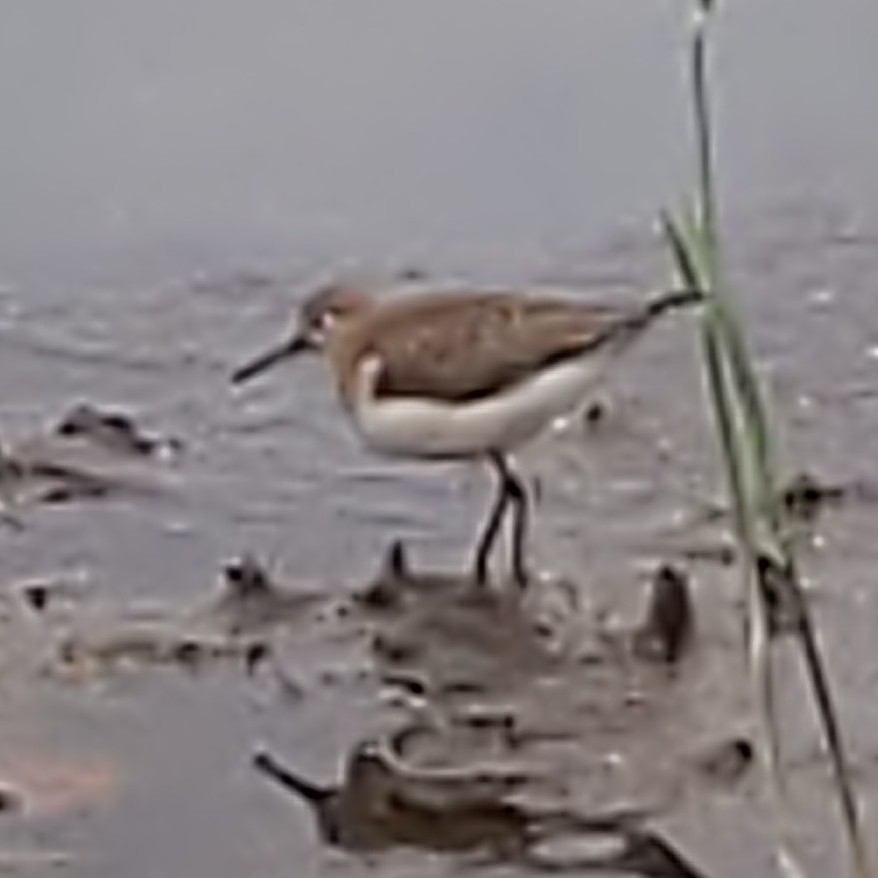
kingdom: Animalia
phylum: Chordata
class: Aves
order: Charadriiformes
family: Scolopacidae
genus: Actitis
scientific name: Actitis macularius
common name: Spotted sandpiper
